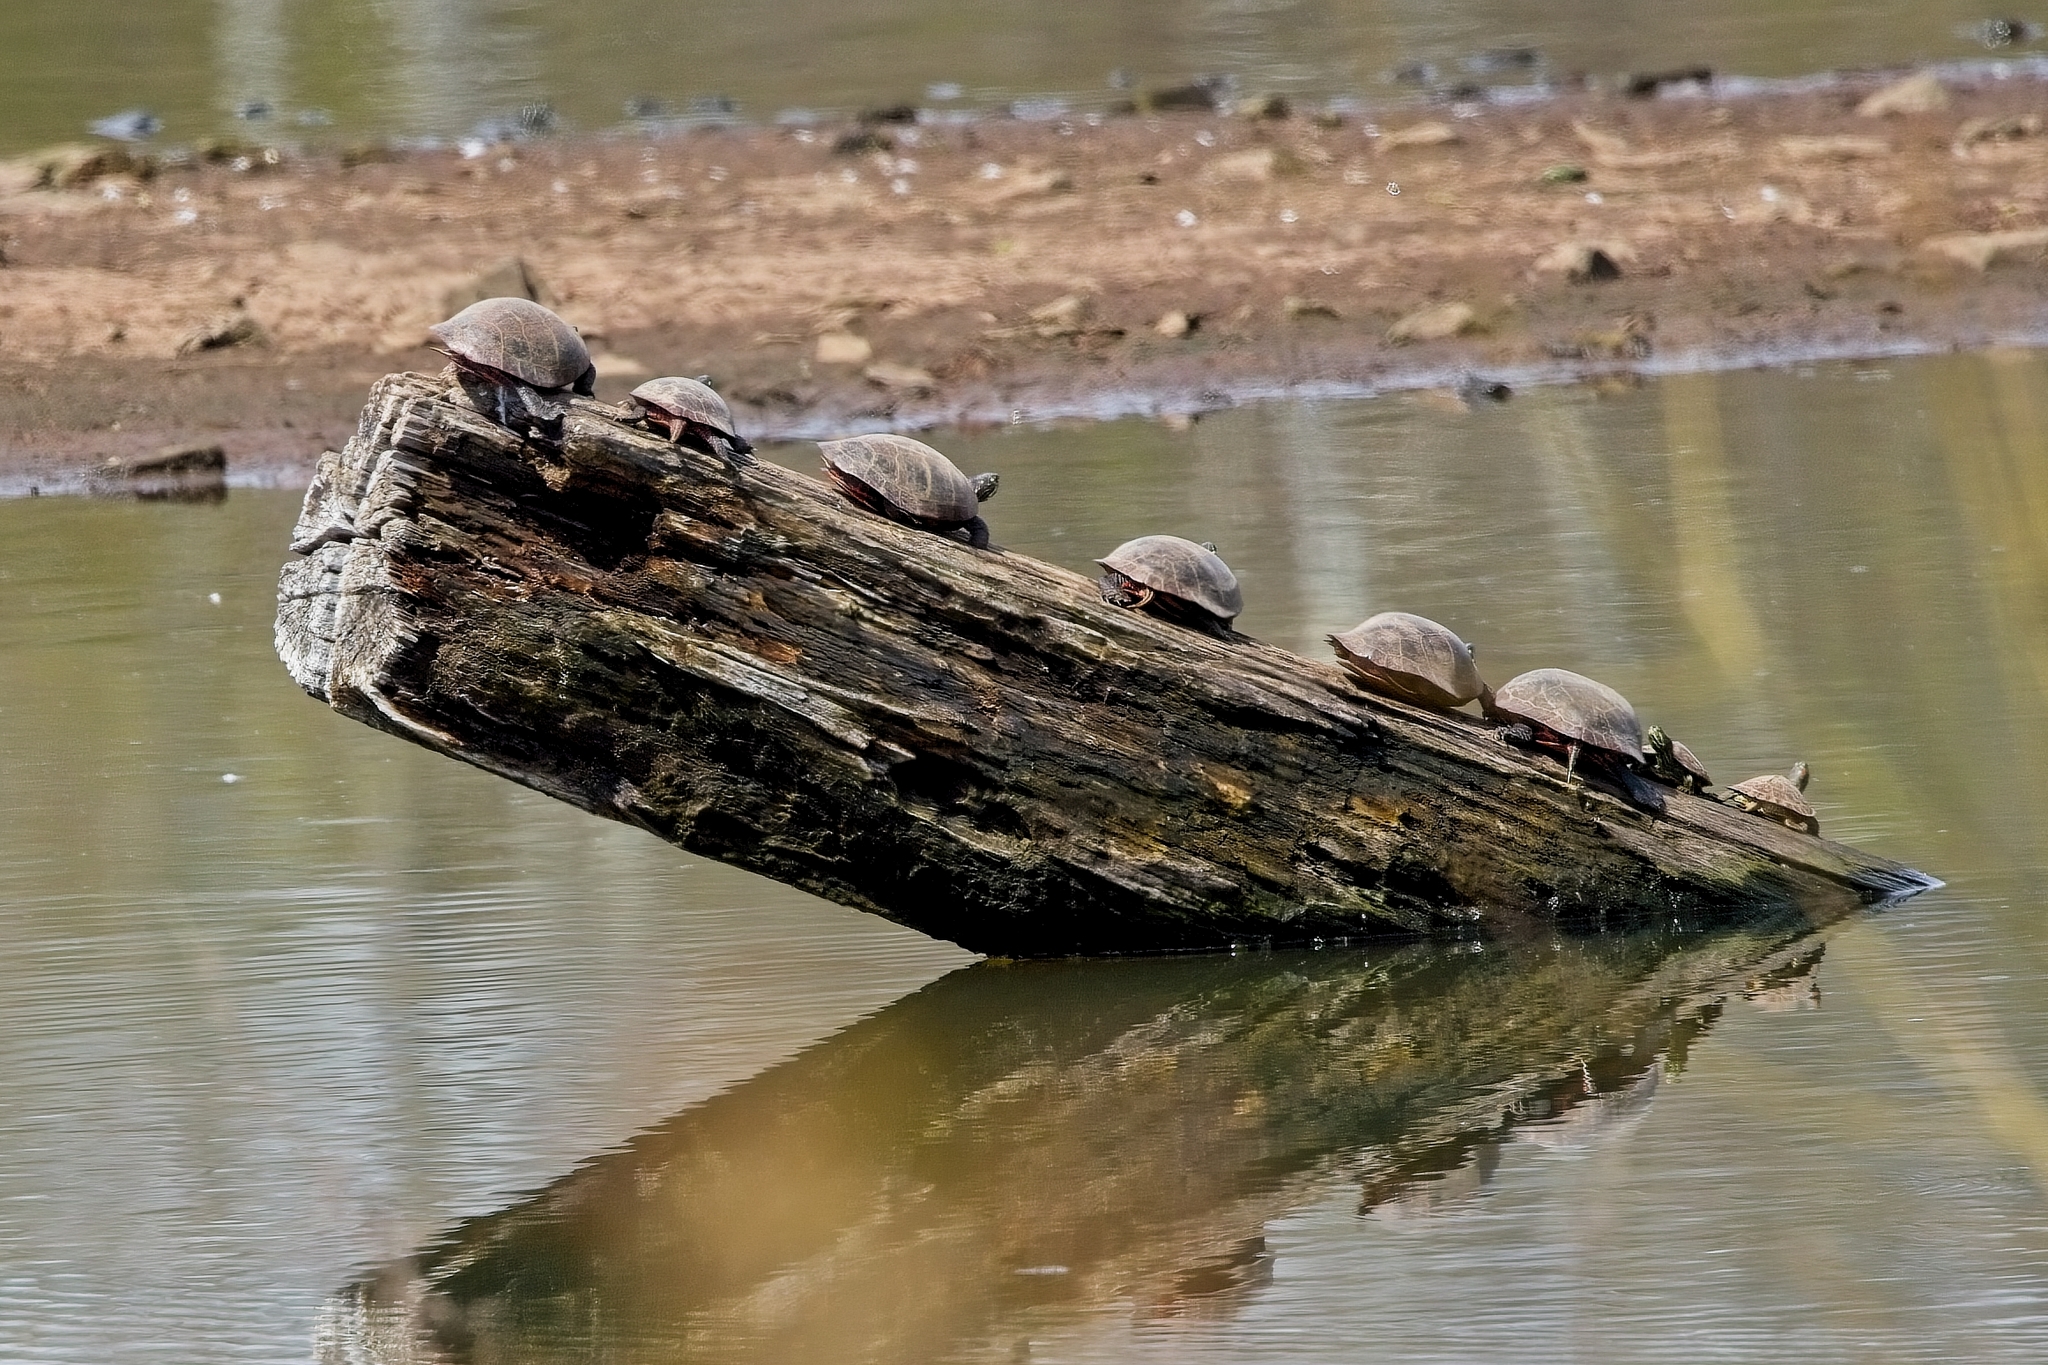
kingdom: Animalia
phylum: Chordata
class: Testudines
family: Emydidae
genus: Pseudemys
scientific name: Pseudemys rubriventris
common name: American red-bellied turtle
